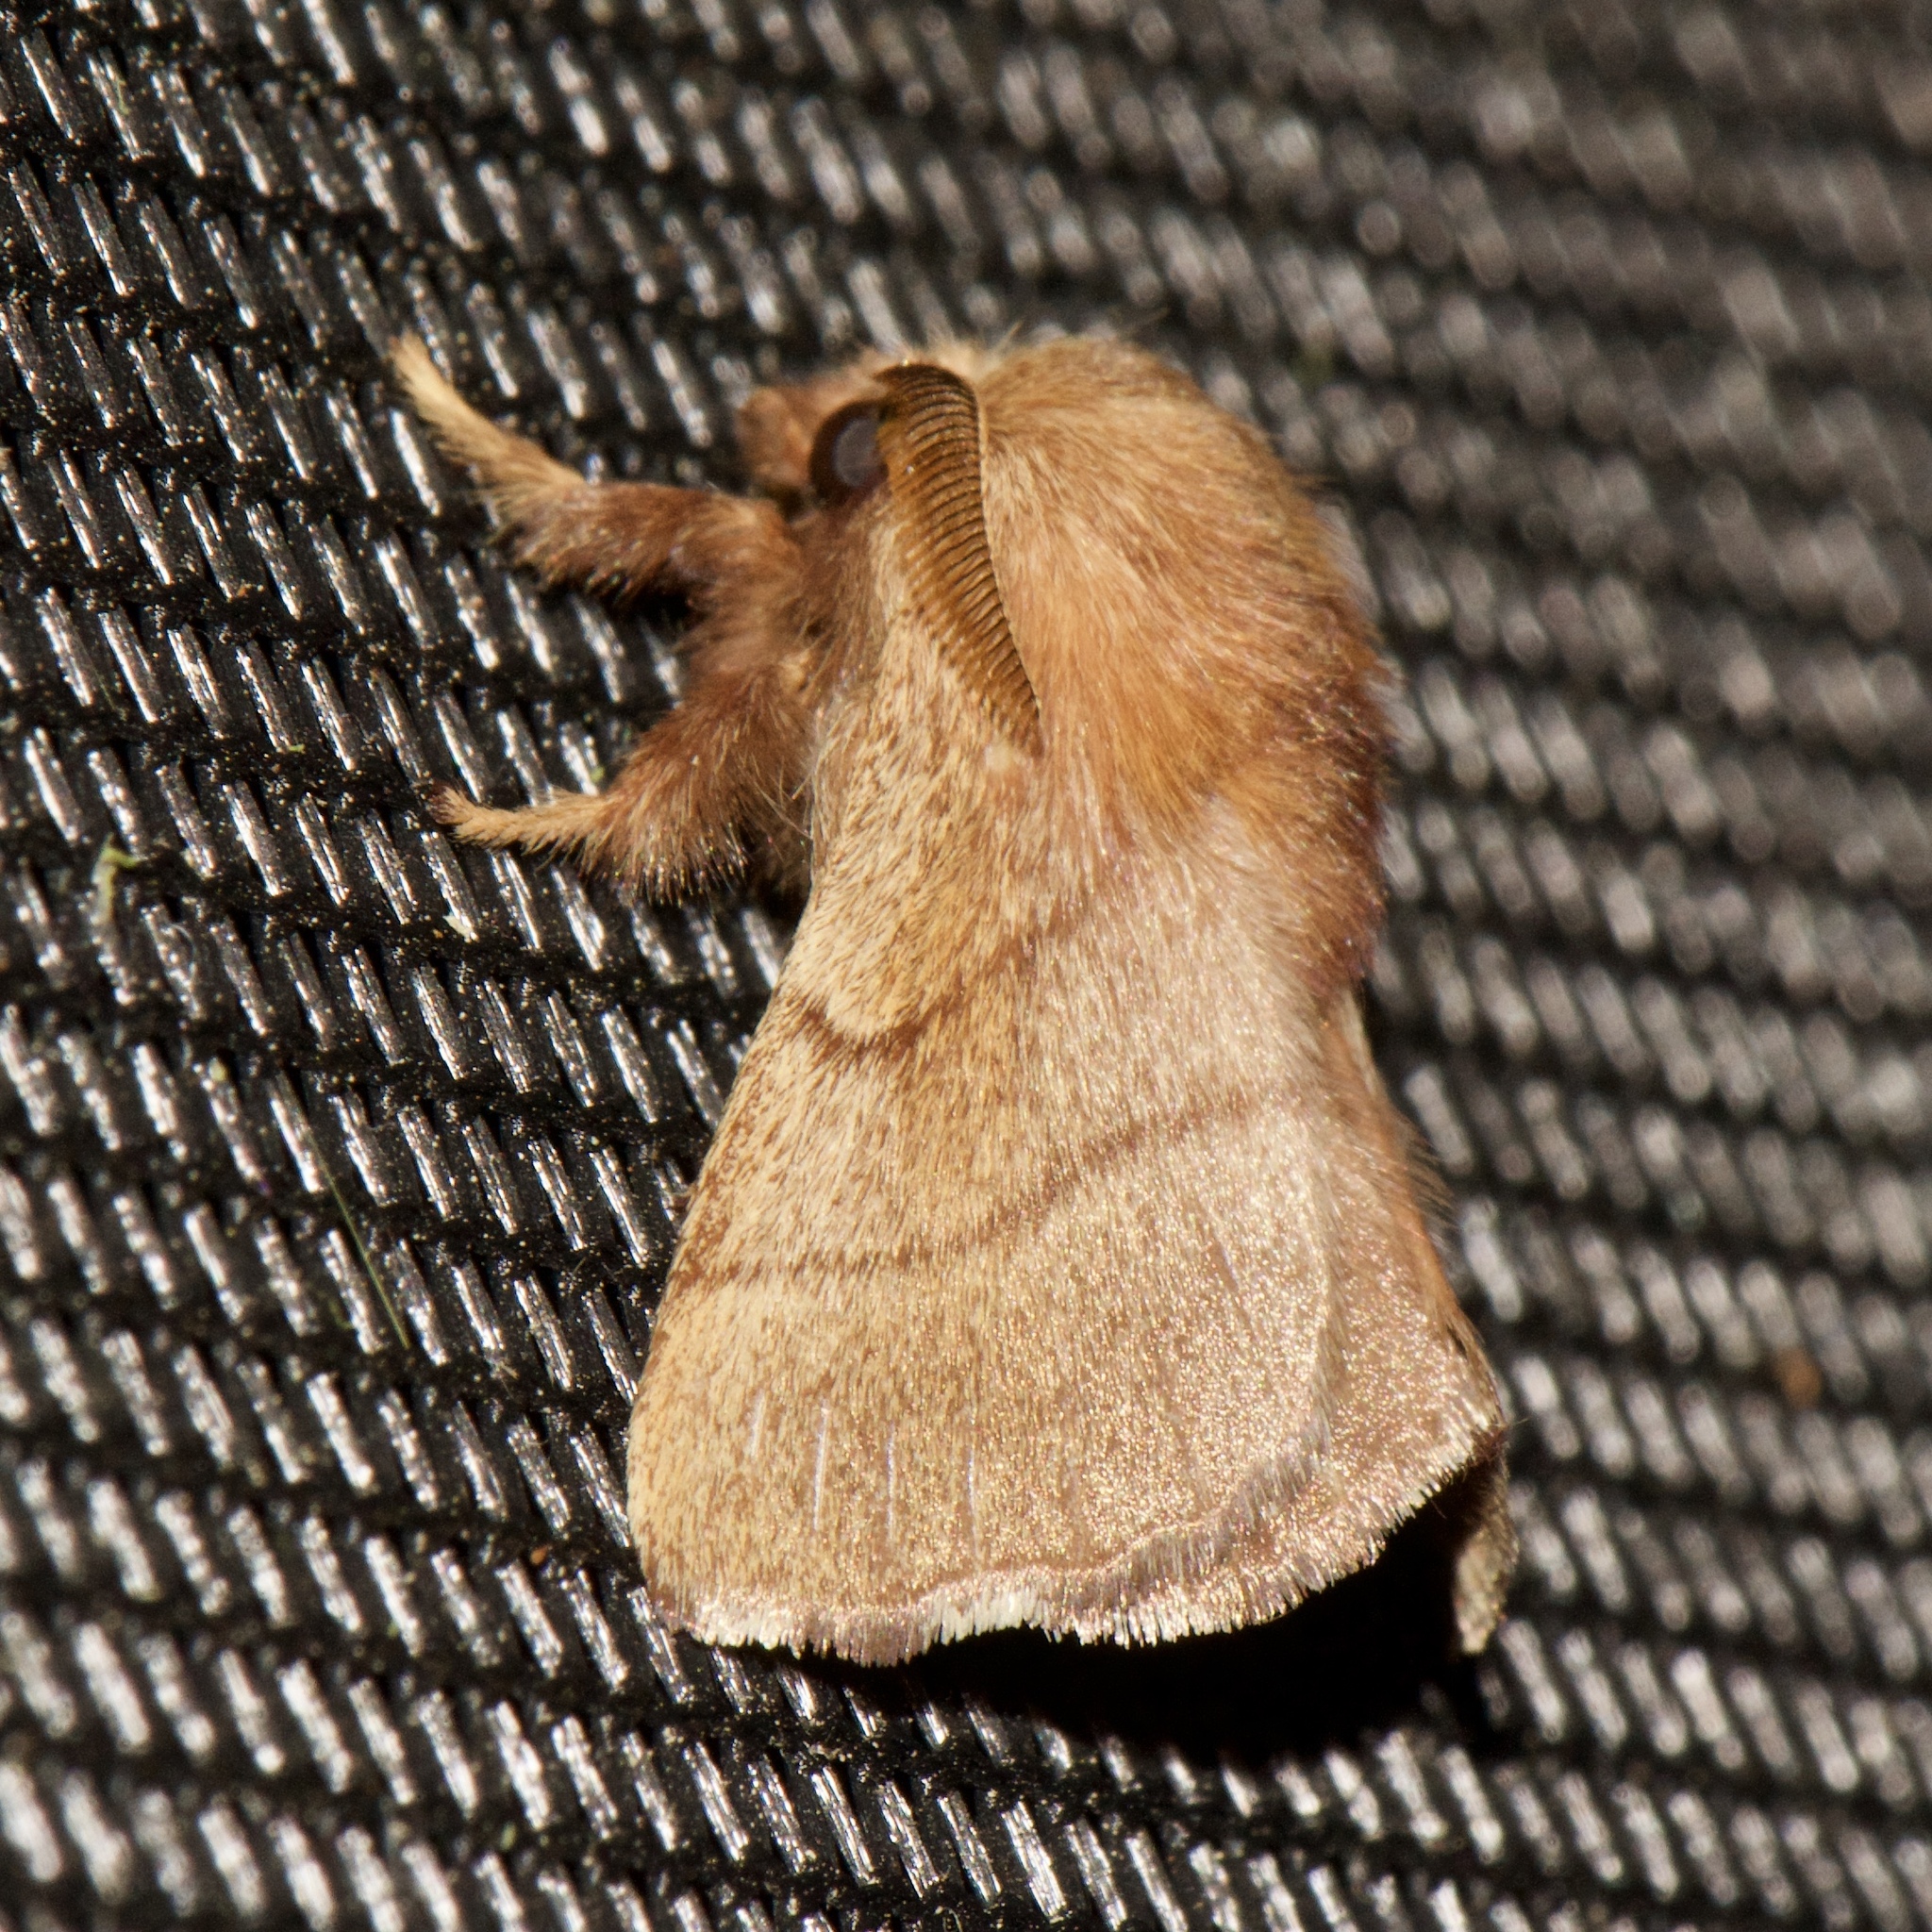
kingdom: Animalia
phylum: Arthropoda
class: Insecta
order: Lepidoptera
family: Lasiocampidae
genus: Malacosoma
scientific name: Malacosoma disstria
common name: Forest tent caterpillar
